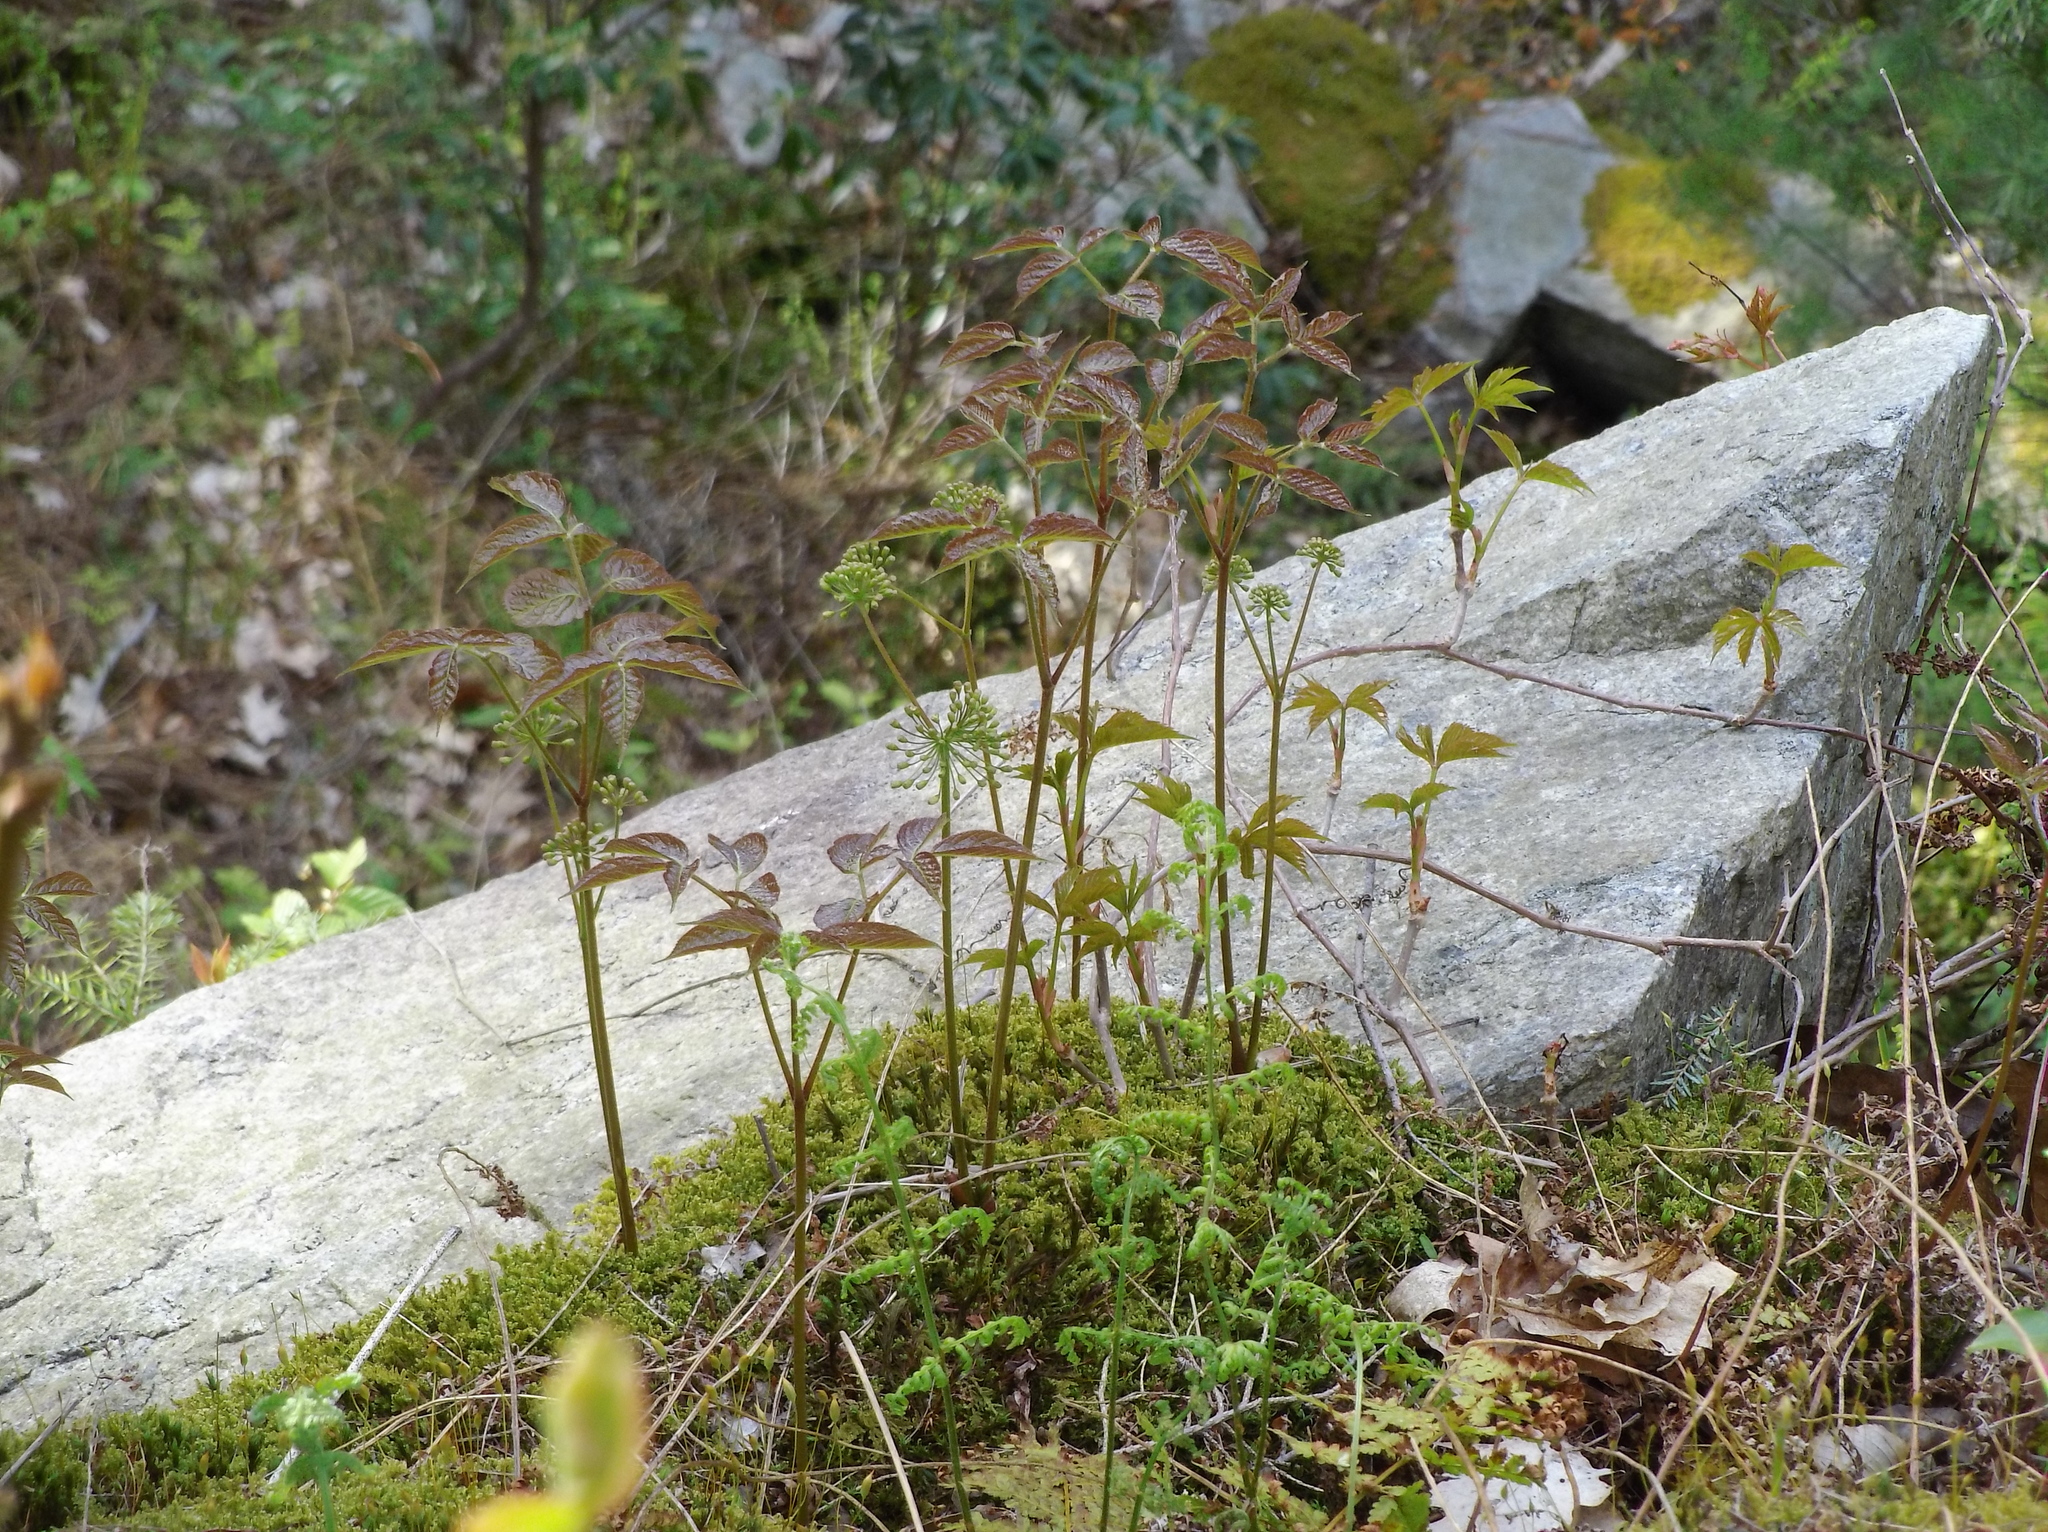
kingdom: Plantae
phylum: Tracheophyta
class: Magnoliopsida
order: Apiales
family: Araliaceae
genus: Aralia
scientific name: Aralia nudicaulis
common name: Wild sarsaparilla
